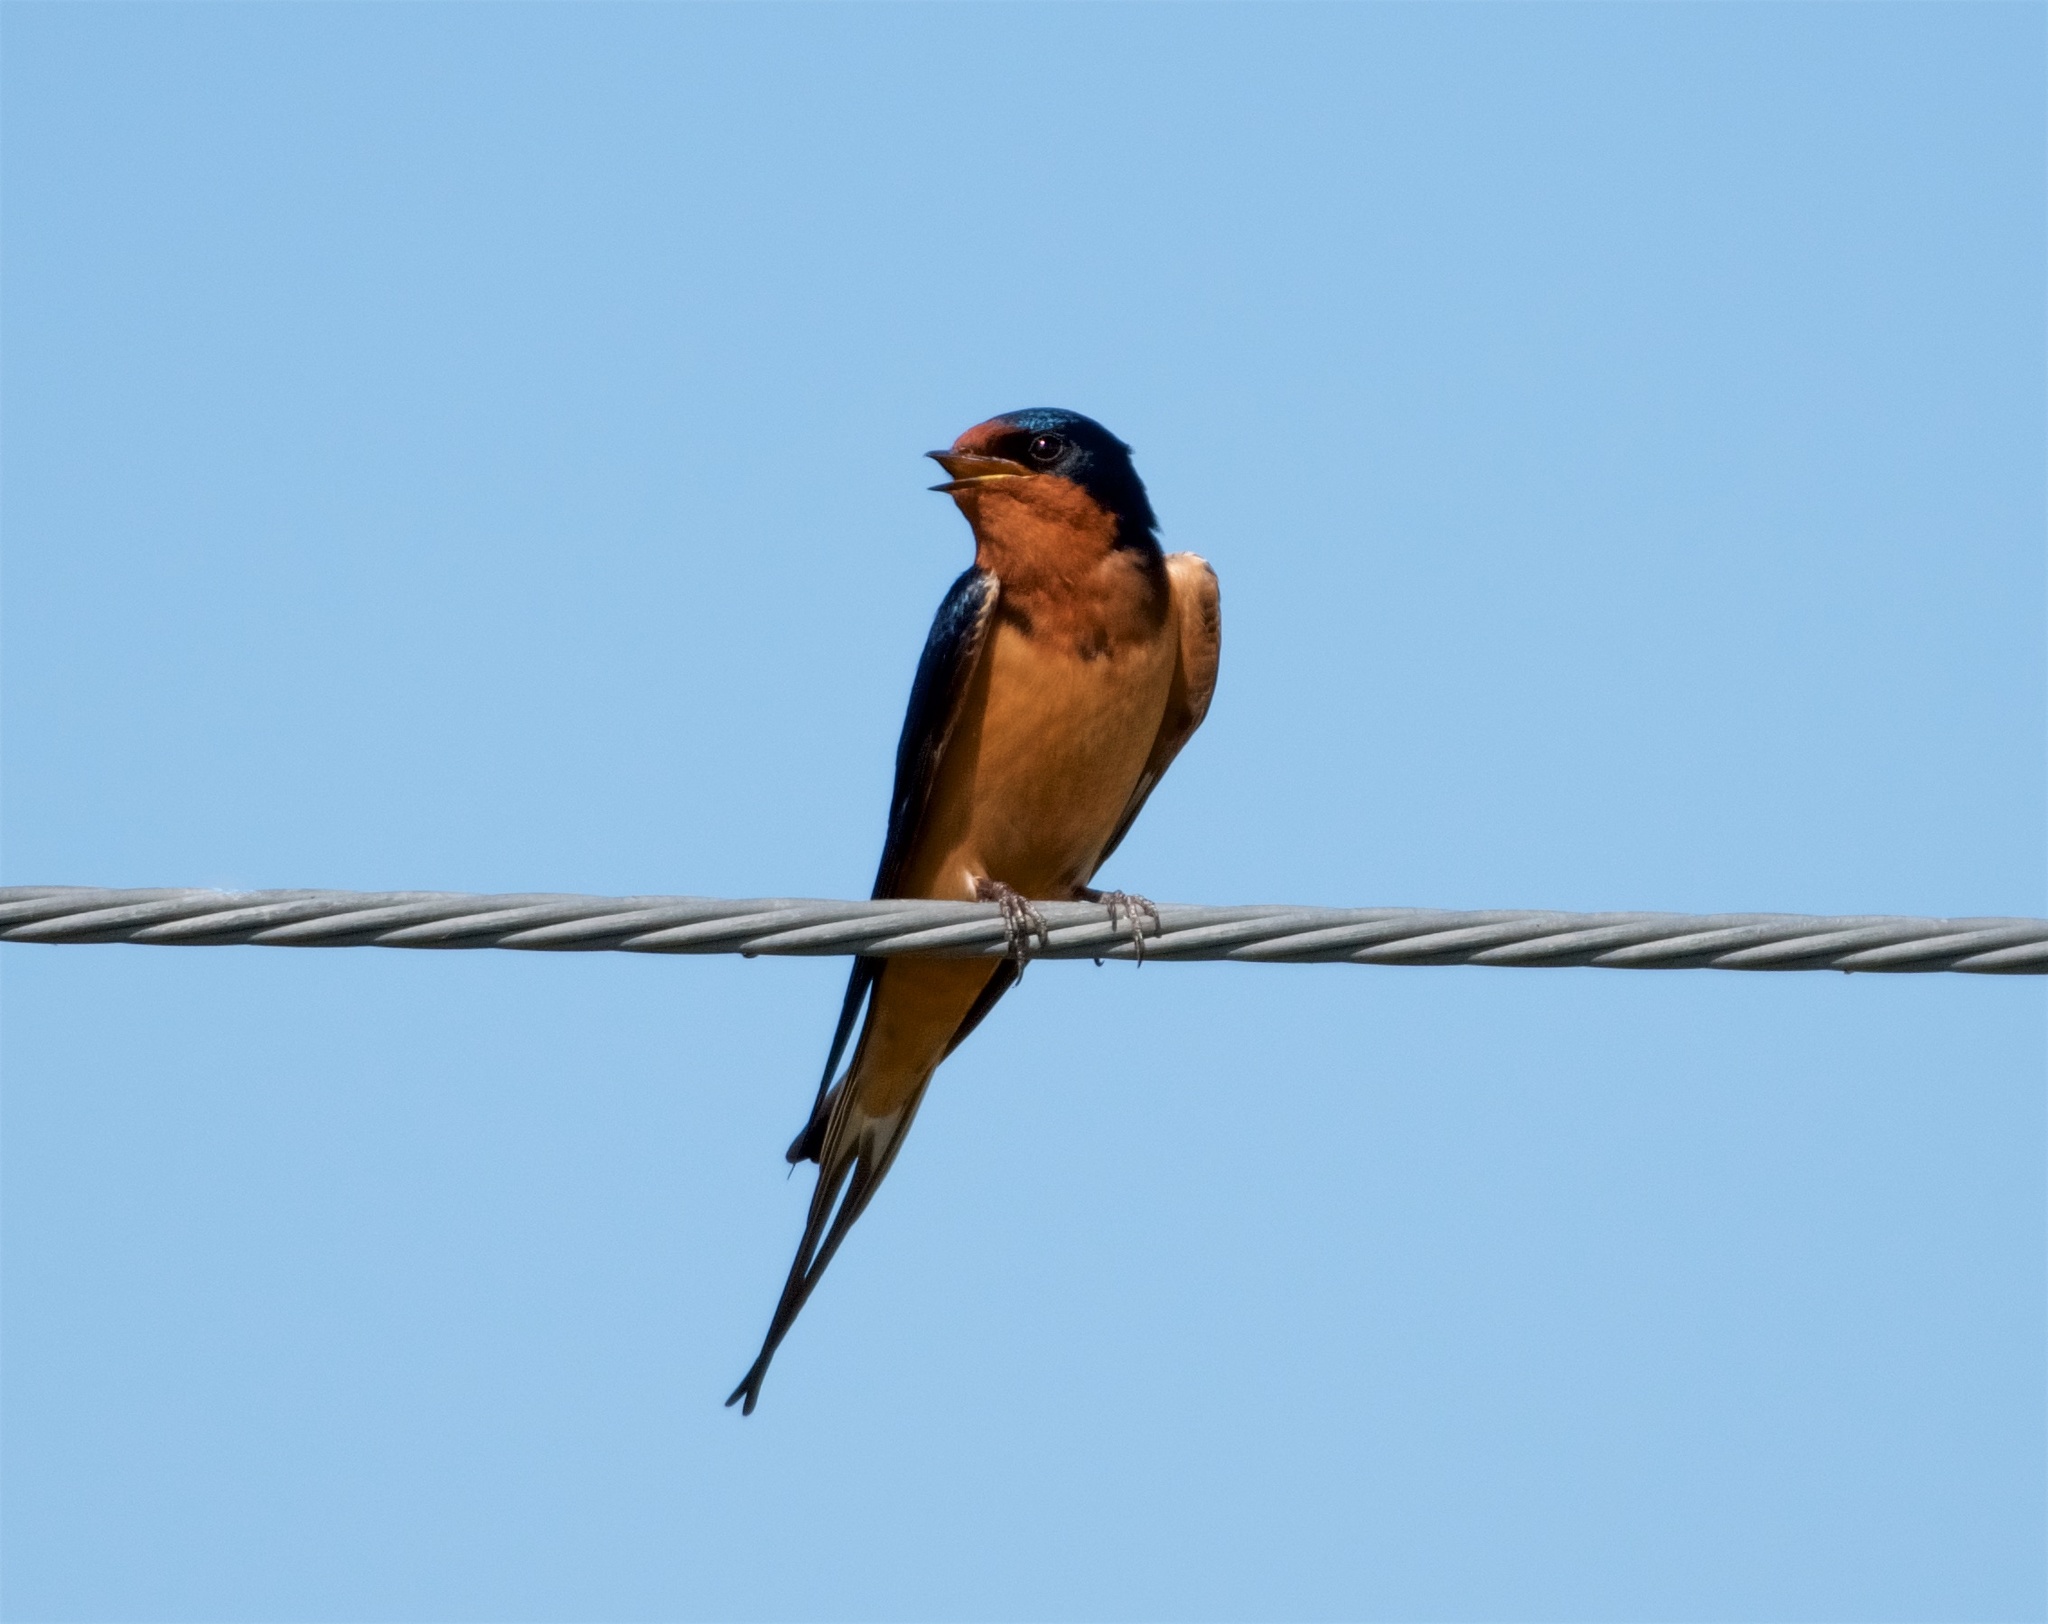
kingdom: Animalia
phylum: Chordata
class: Aves
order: Passeriformes
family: Hirundinidae
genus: Hirundo
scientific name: Hirundo rustica
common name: Barn swallow
